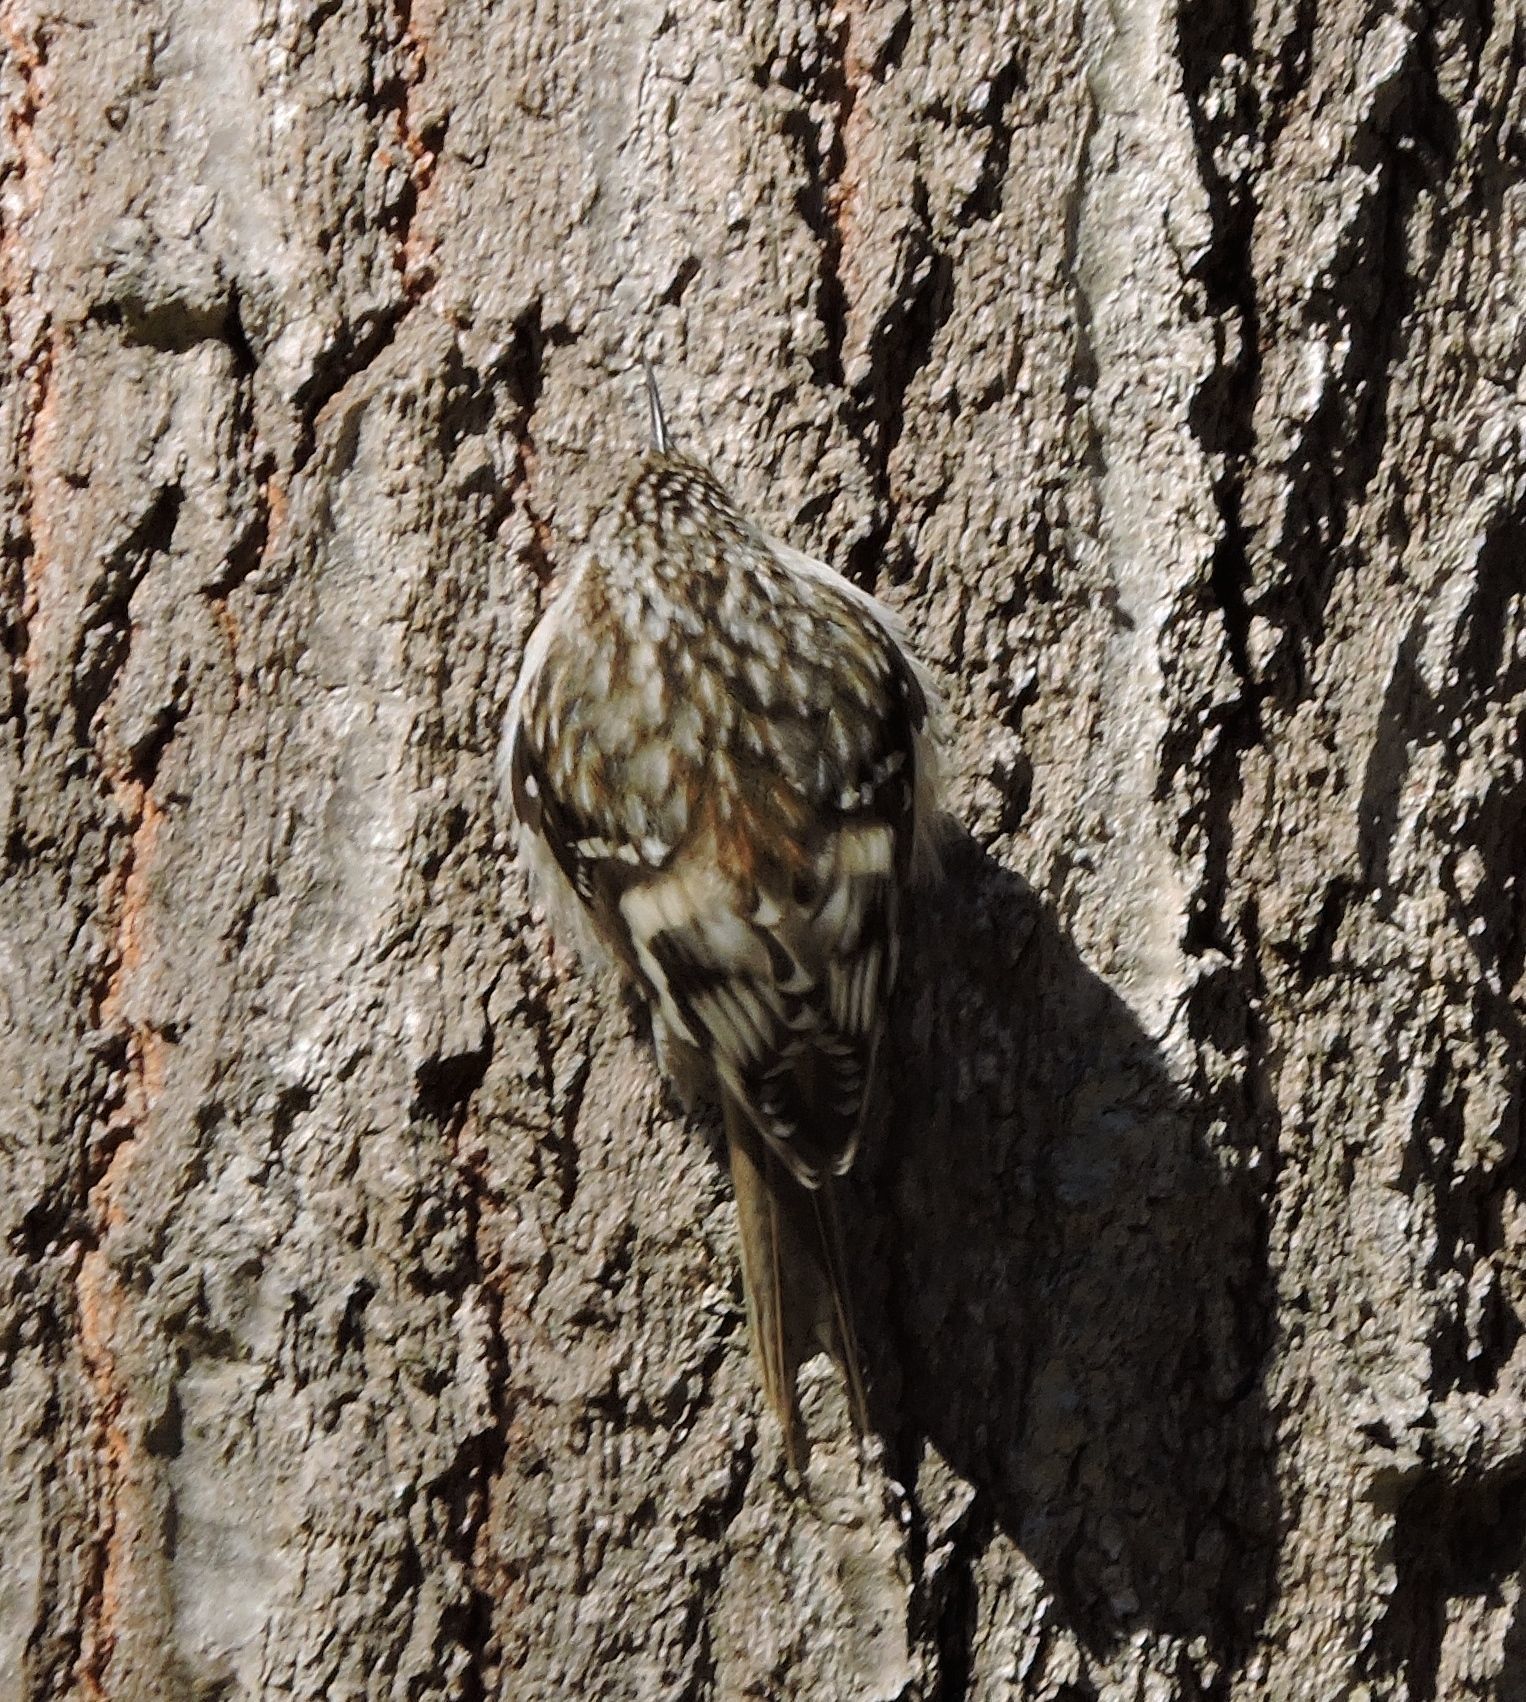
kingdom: Animalia
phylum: Chordata
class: Aves
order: Passeriformes
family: Certhiidae
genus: Certhia
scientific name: Certhia americana
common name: Brown creeper
